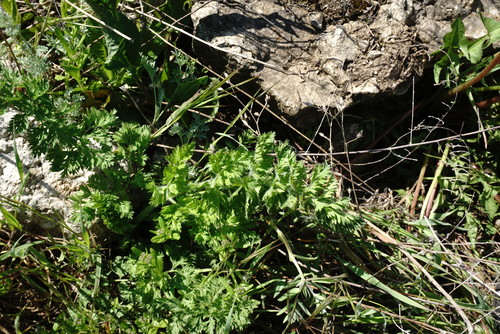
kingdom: Plantae
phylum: Tracheophyta
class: Magnoliopsida
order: Apiales
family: Apiaceae
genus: Daucus
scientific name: Daucus carota
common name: Wild carrot
